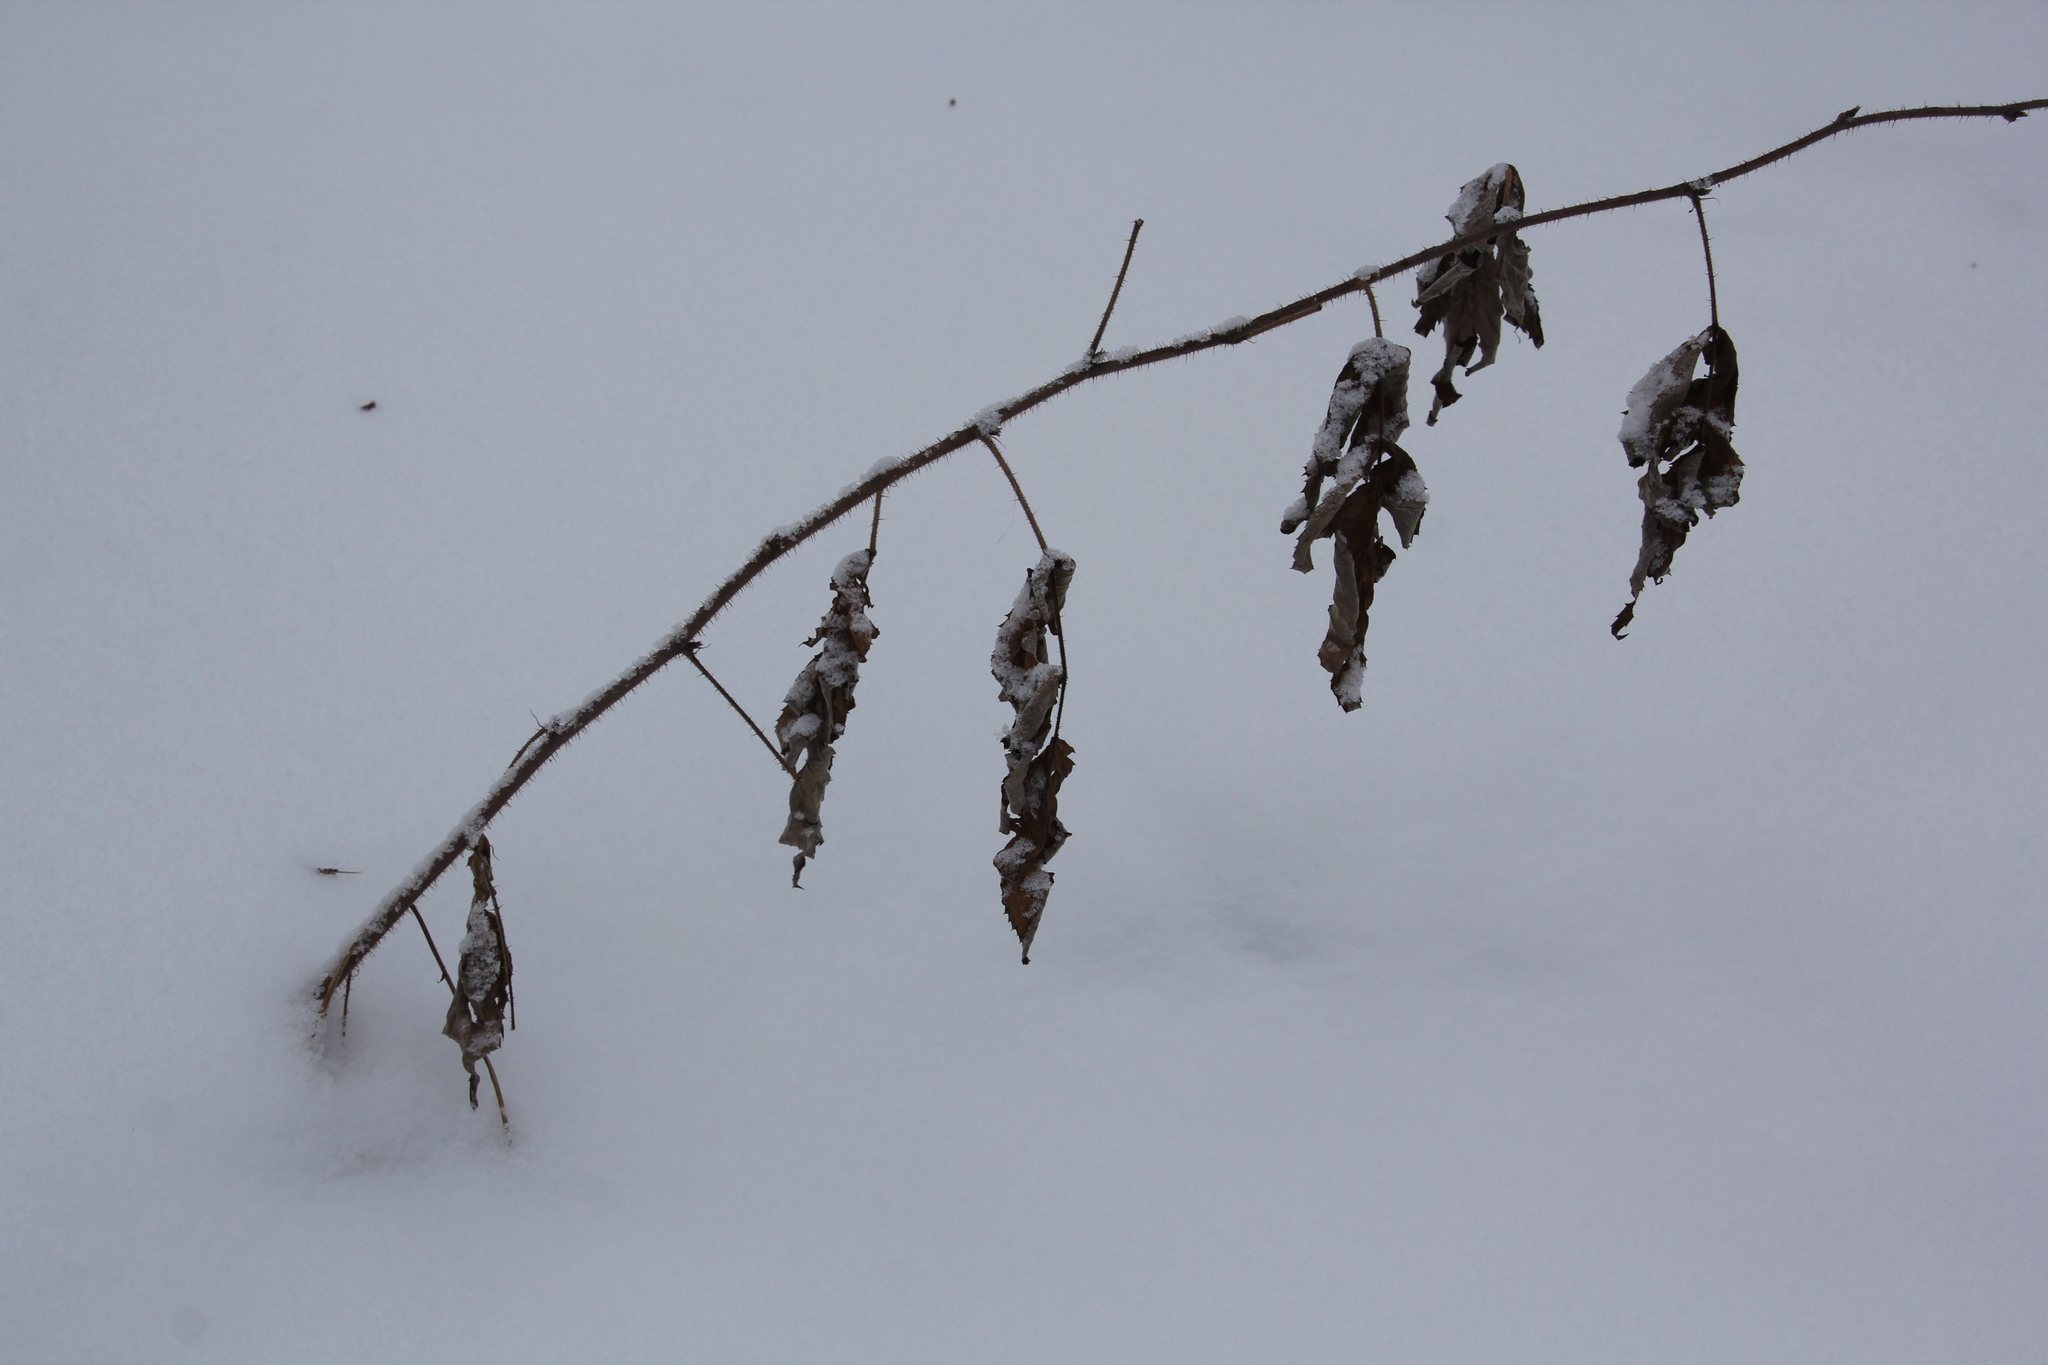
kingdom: Plantae
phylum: Tracheophyta
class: Magnoliopsida
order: Rosales
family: Rosaceae
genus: Rubus
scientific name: Rubus idaeus
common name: Raspberry
